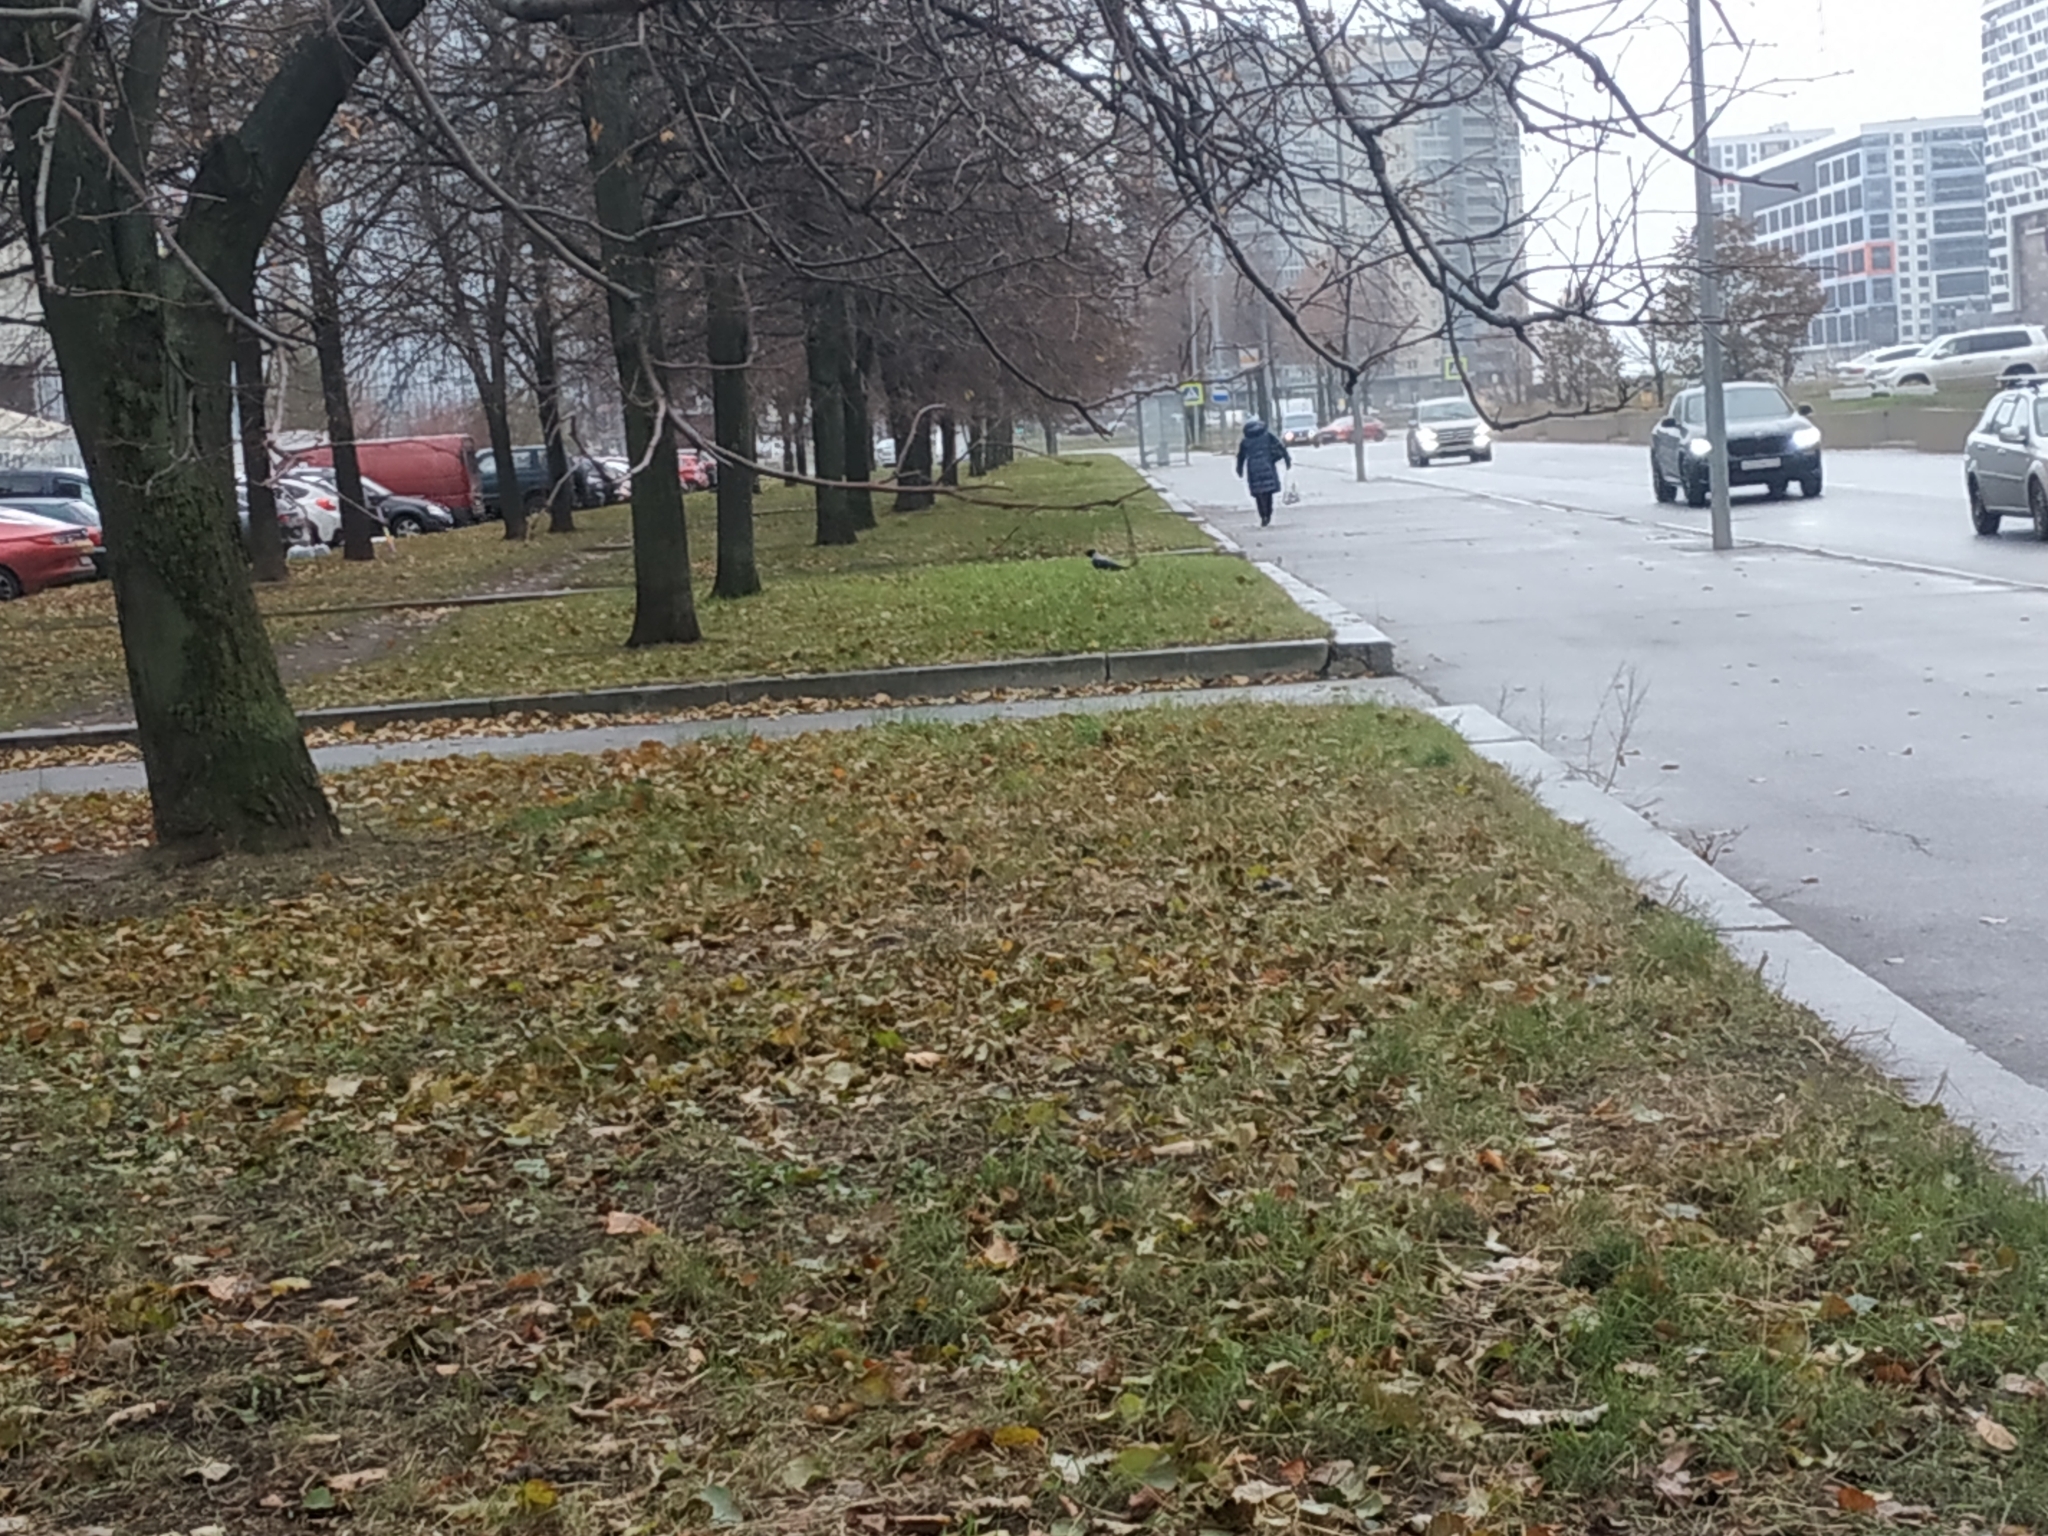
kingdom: Animalia
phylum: Chordata
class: Aves
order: Passeriformes
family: Corvidae
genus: Corvus
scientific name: Corvus cornix
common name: Hooded crow
